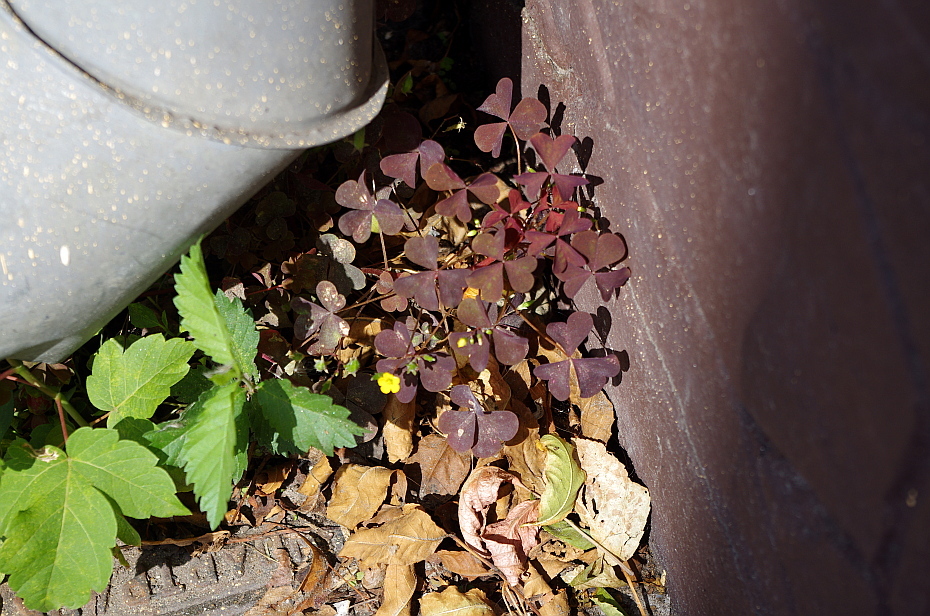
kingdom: Plantae
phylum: Tracheophyta
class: Magnoliopsida
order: Oxalidales
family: Oxalidaceae
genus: Oxalis
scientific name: Oxalis stricta
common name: Upright yellow-sorrel
